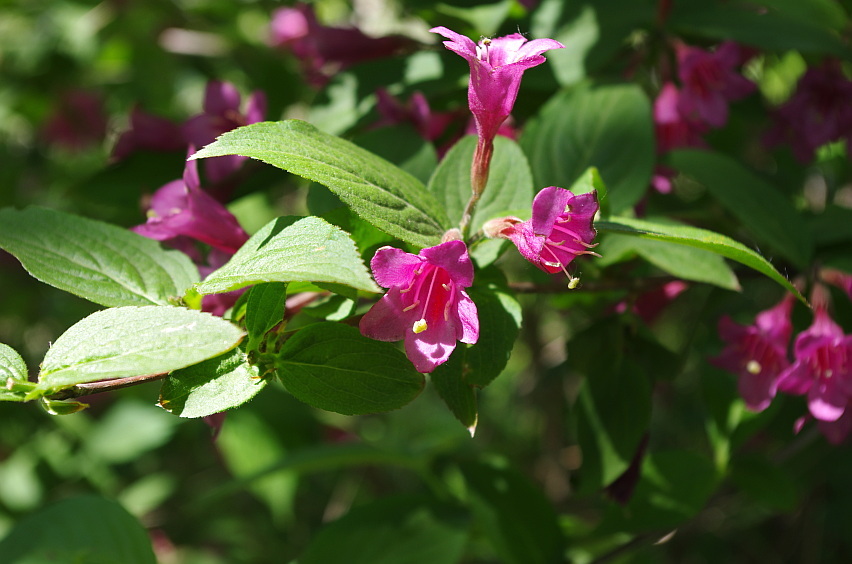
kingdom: Plantae
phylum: Tracheophyta
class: Magnoliopsida
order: Dipsacales
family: Caprifoliaceae
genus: Weigela
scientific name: Weigela florida
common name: Weigelia
